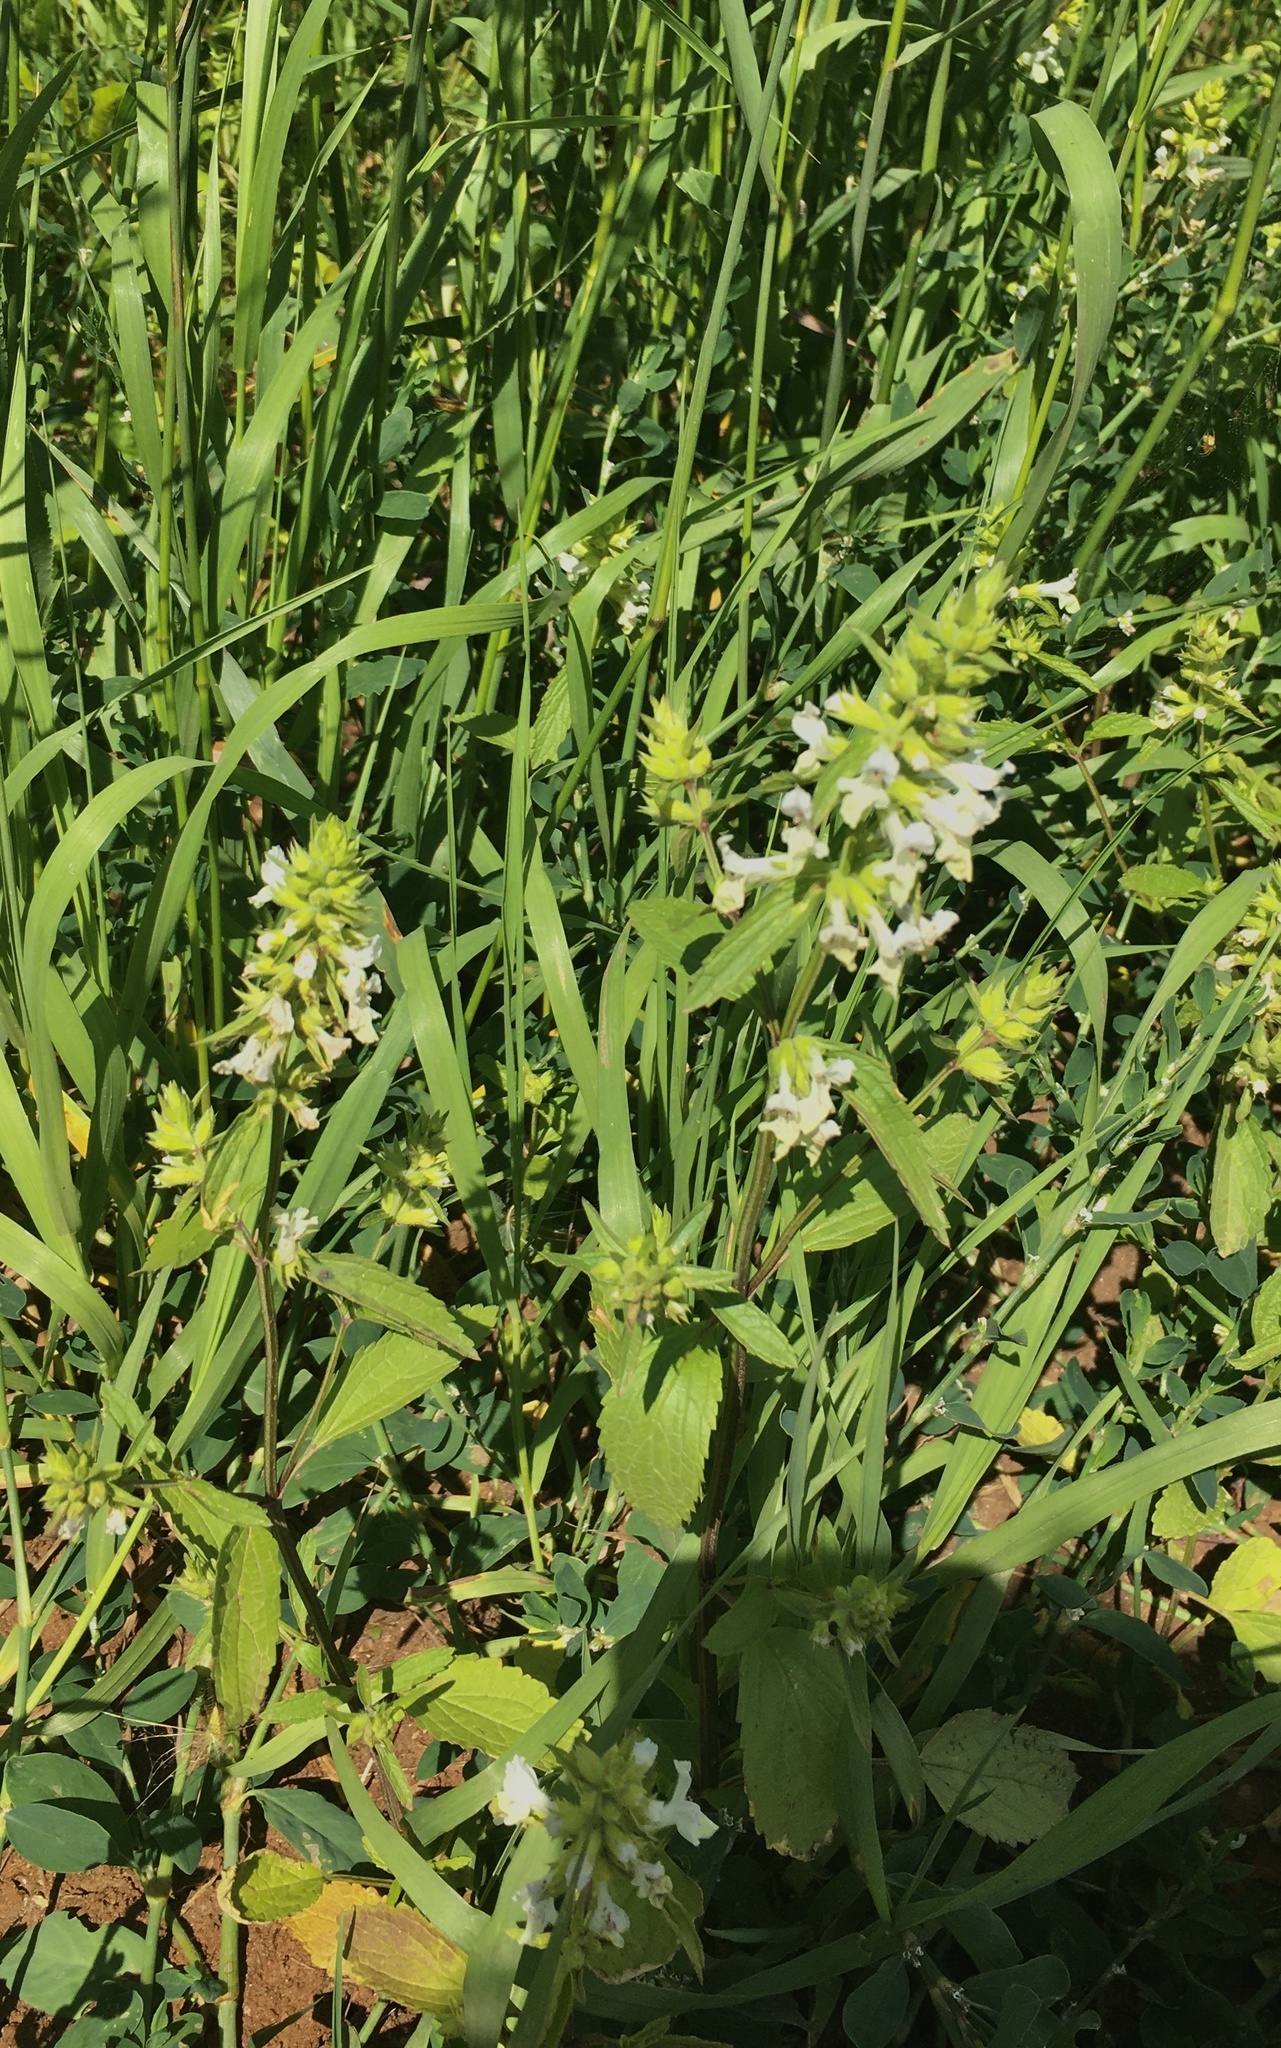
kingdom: Plantae
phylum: Tracheophyta
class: Magnoliopsida
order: Lamiales
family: Lamiaceae
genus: Stachys
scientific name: Stachys annua
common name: Annual yellow-woundwort
